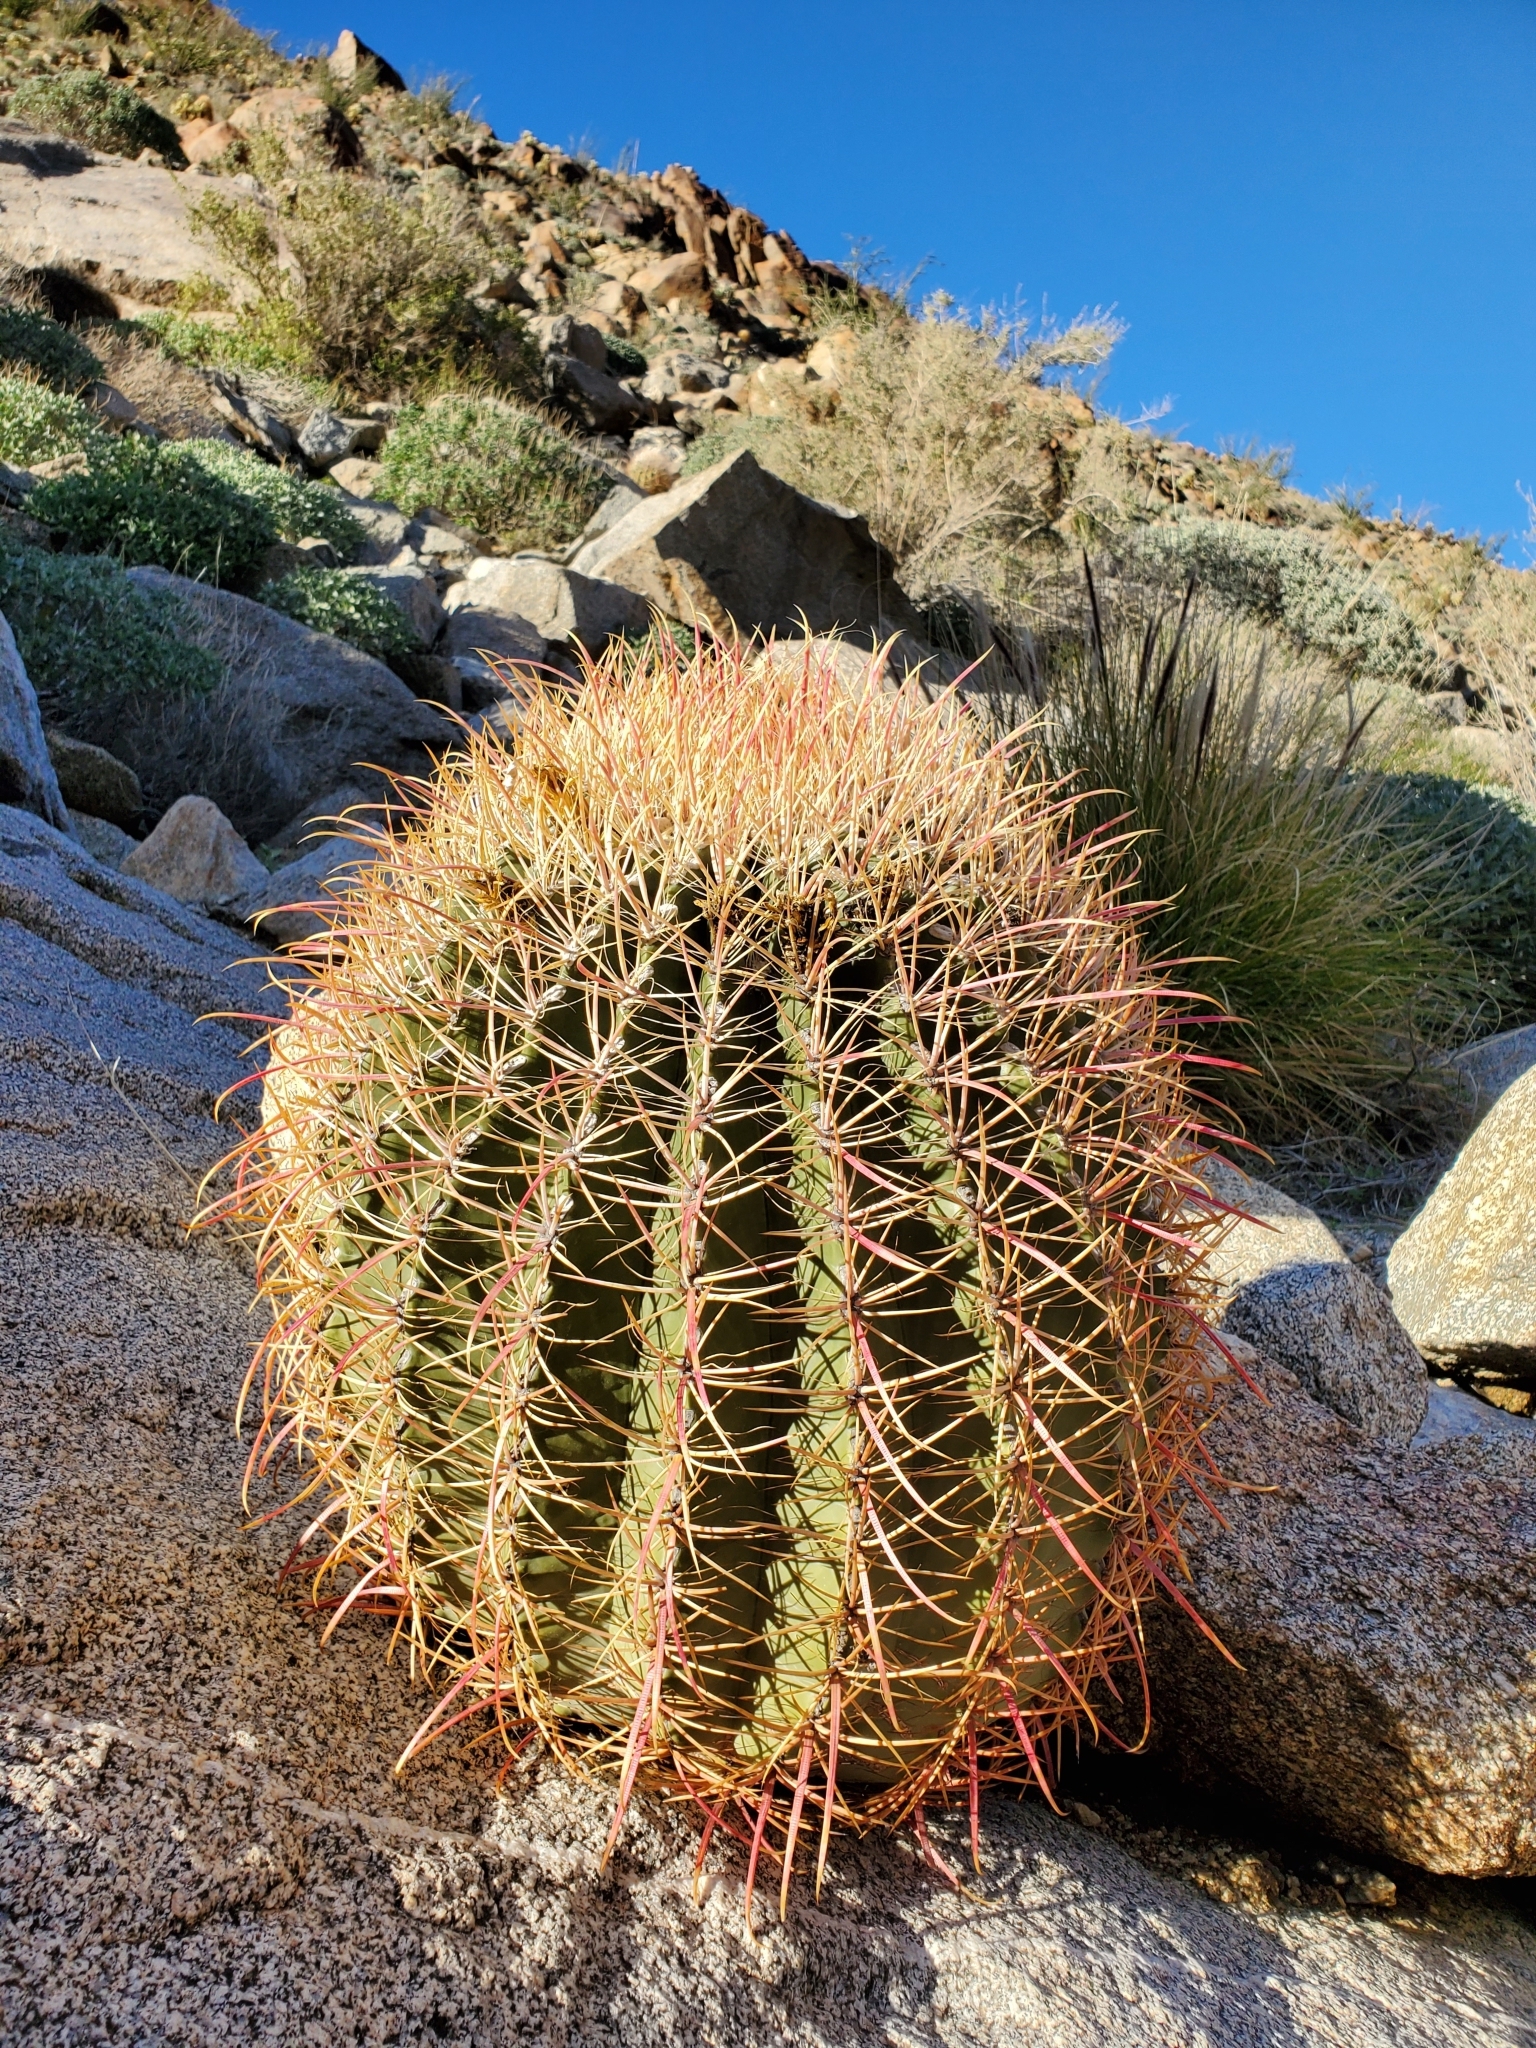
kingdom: Plantae
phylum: Tracheophyta
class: Magnoliopsida
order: Caryophyllales
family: Cactaceae
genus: Ferocactus
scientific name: Ferocactus cylindraceus
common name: California barrel cactus
